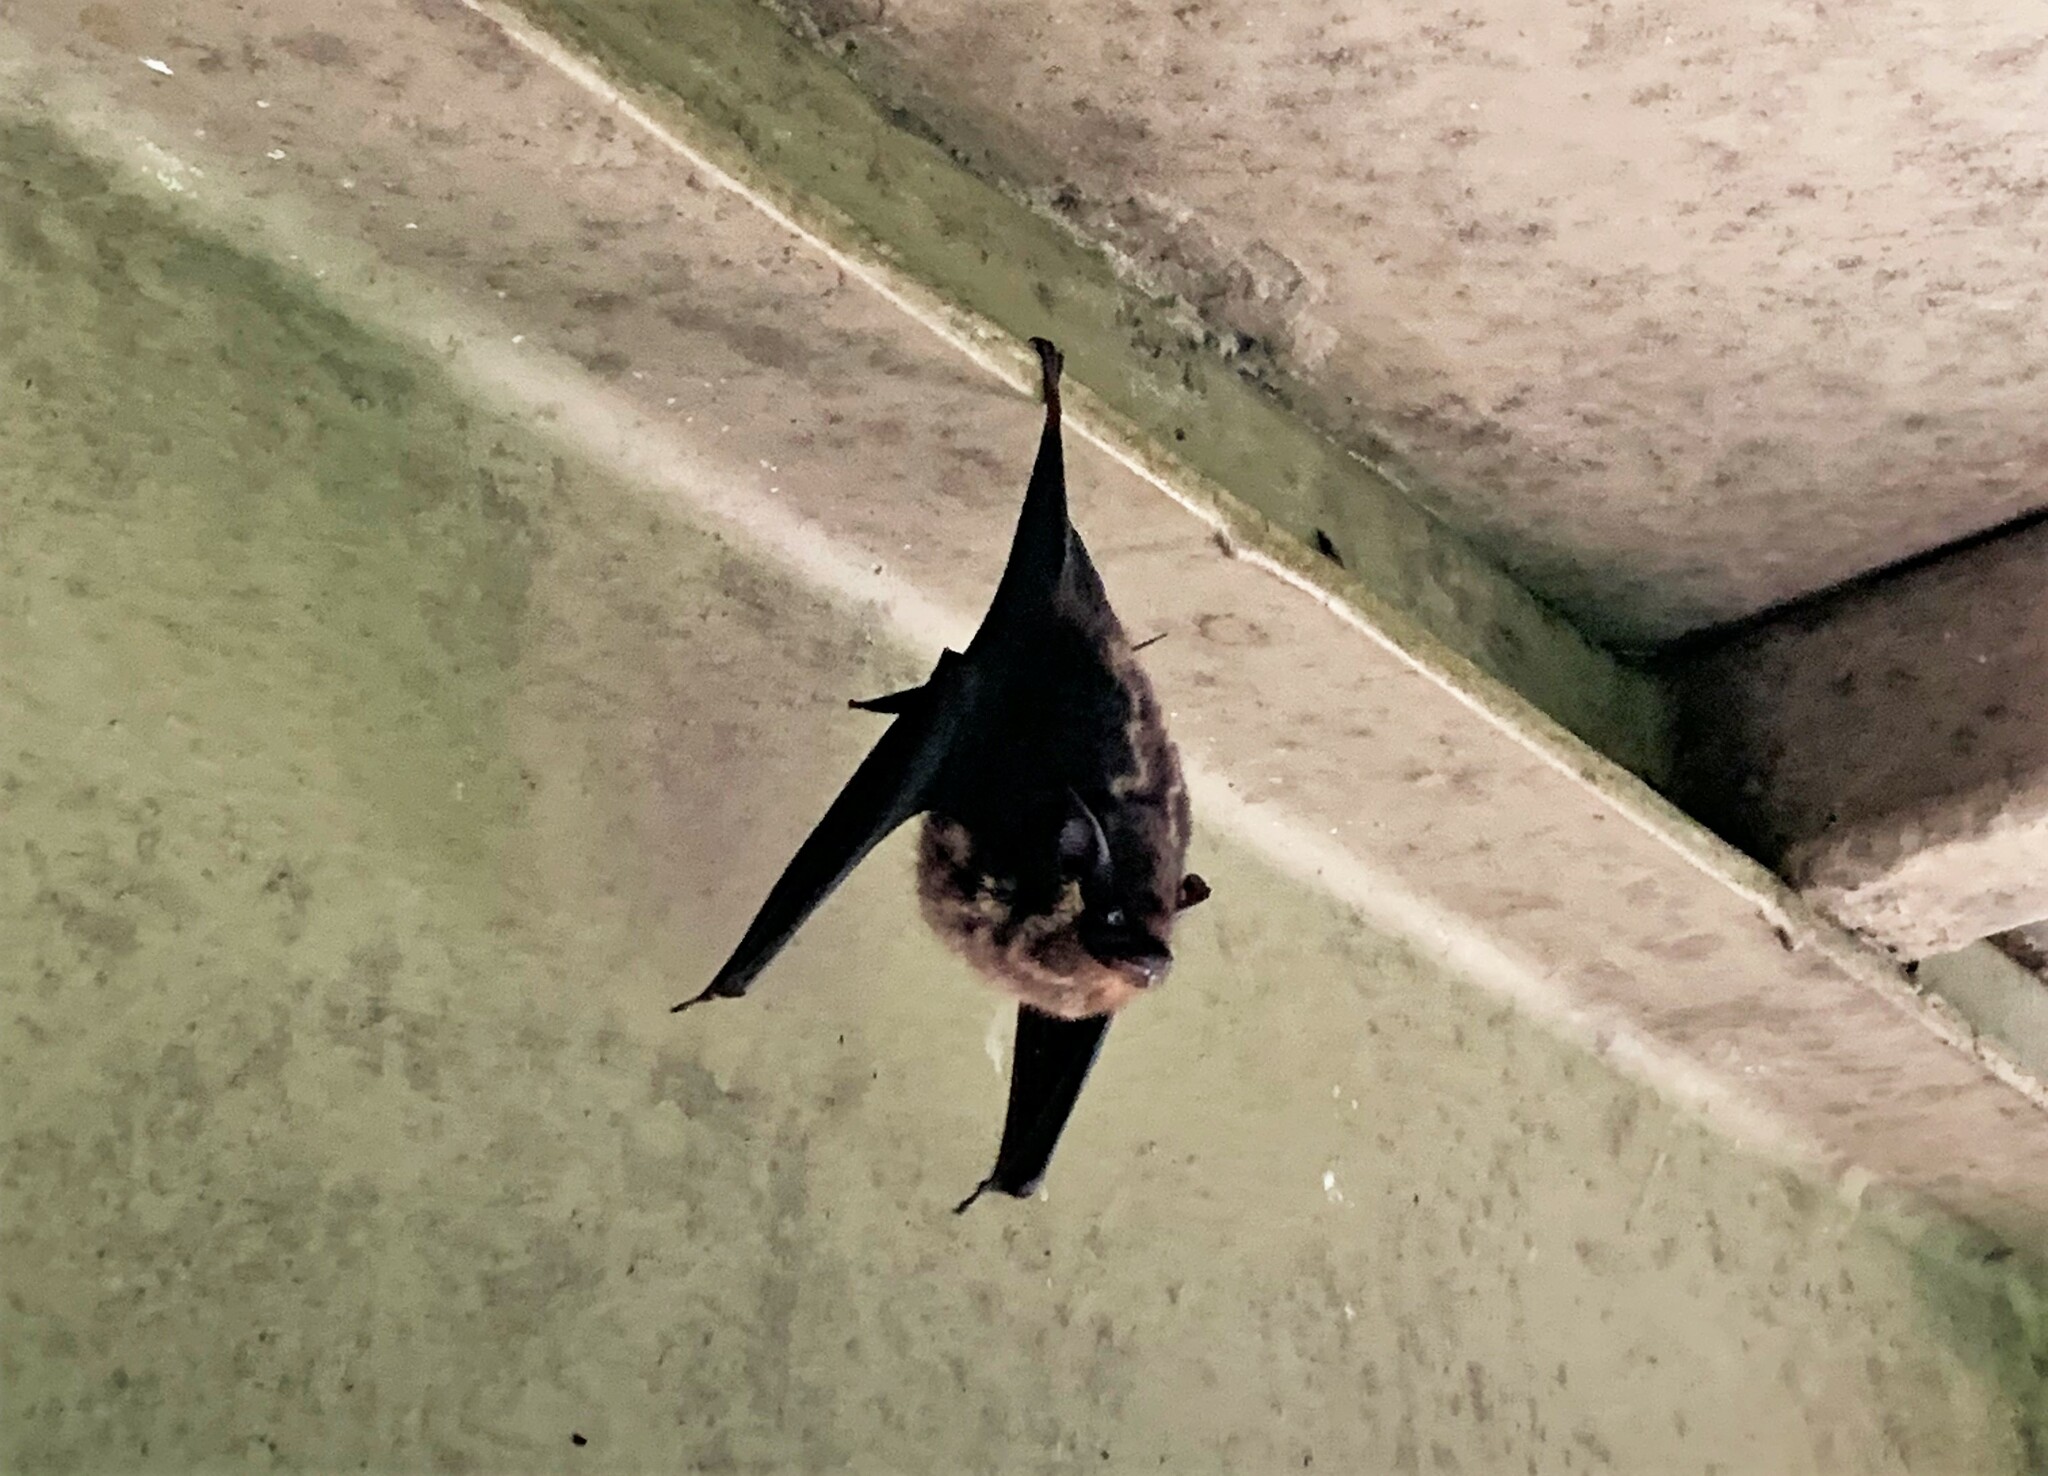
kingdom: Animalia
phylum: Chordata
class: Mammalia
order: Chiroptera
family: Emballonuridae
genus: Saccopteryx
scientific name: Saccopteryx bilineata
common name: Greater sac-winged bat
